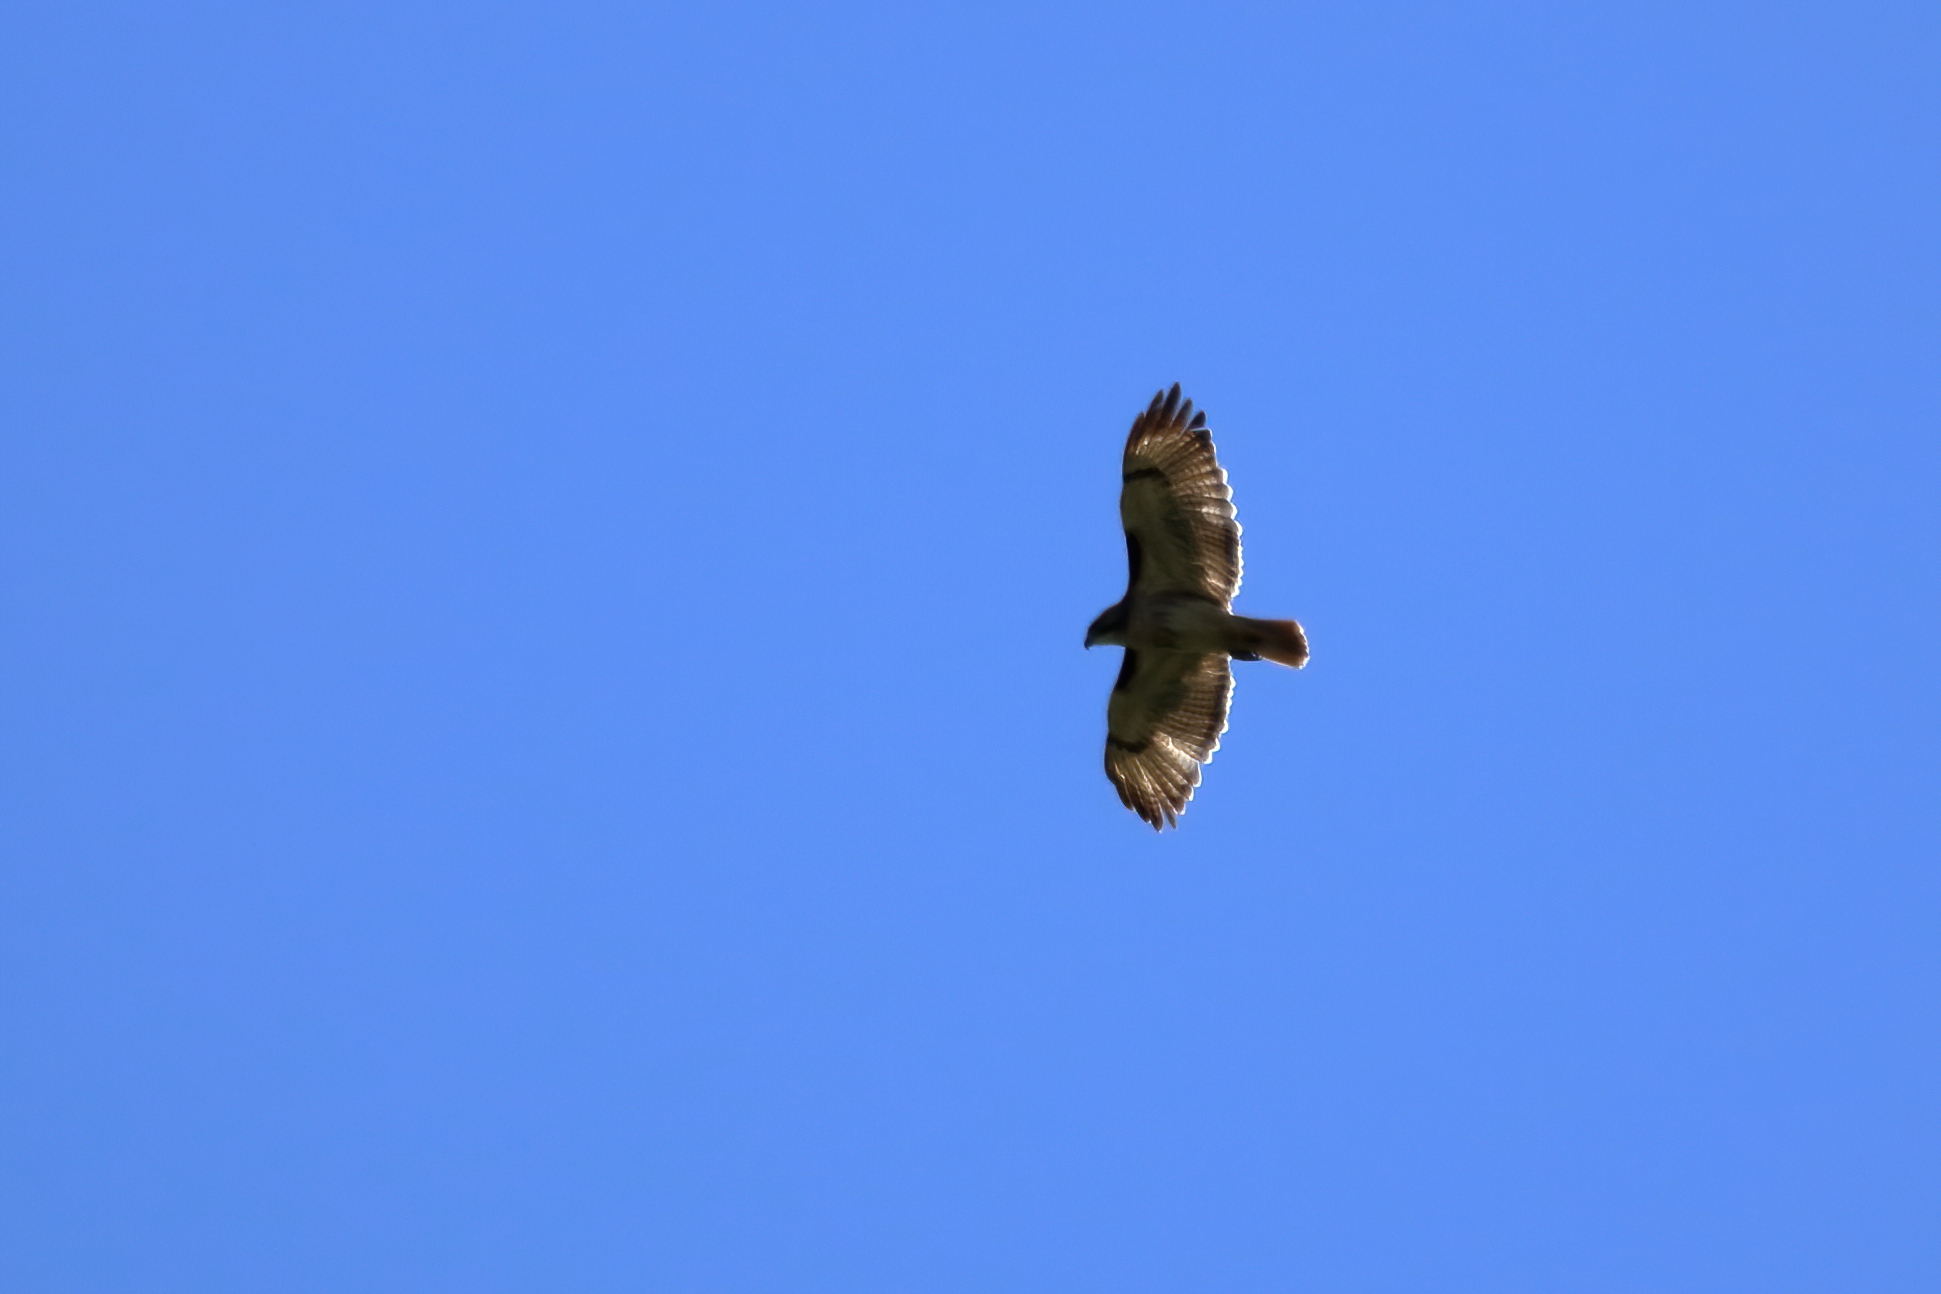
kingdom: Animalia
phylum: Chordata
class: Aves
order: Accipitriformes
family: Accipitridae
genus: Buteo
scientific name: Buteo jamaicensis
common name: Red-tailed hawk
